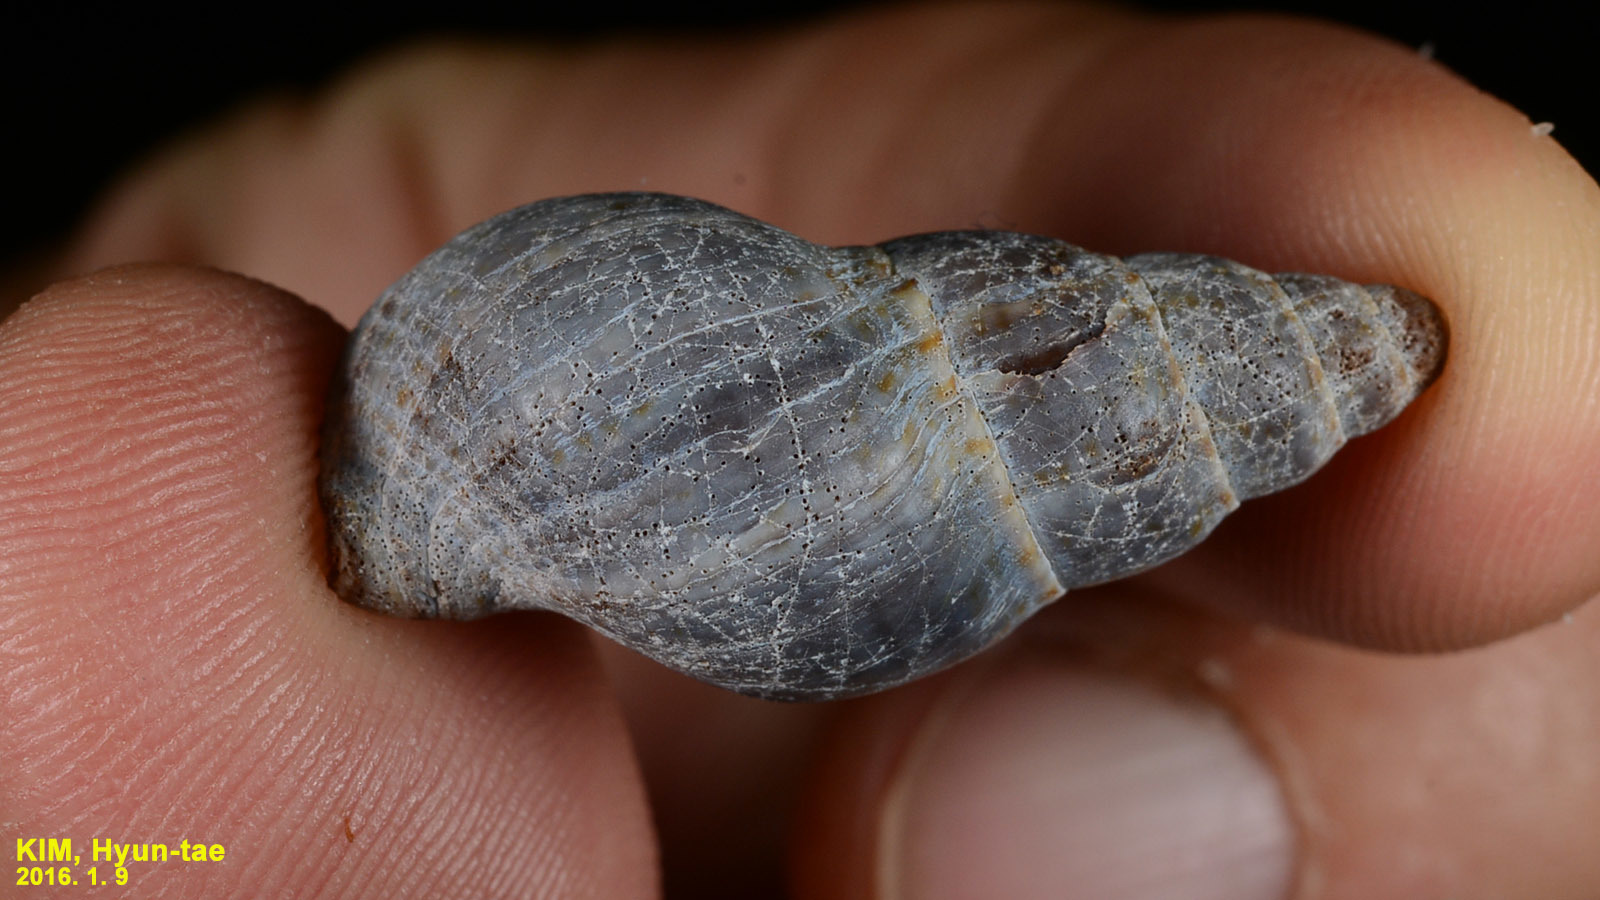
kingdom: Animalia
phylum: Mollusca
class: Gastropoda
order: Neogastropoda
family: Buccinidae
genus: Japeuthria
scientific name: Japeuthria ferrea
